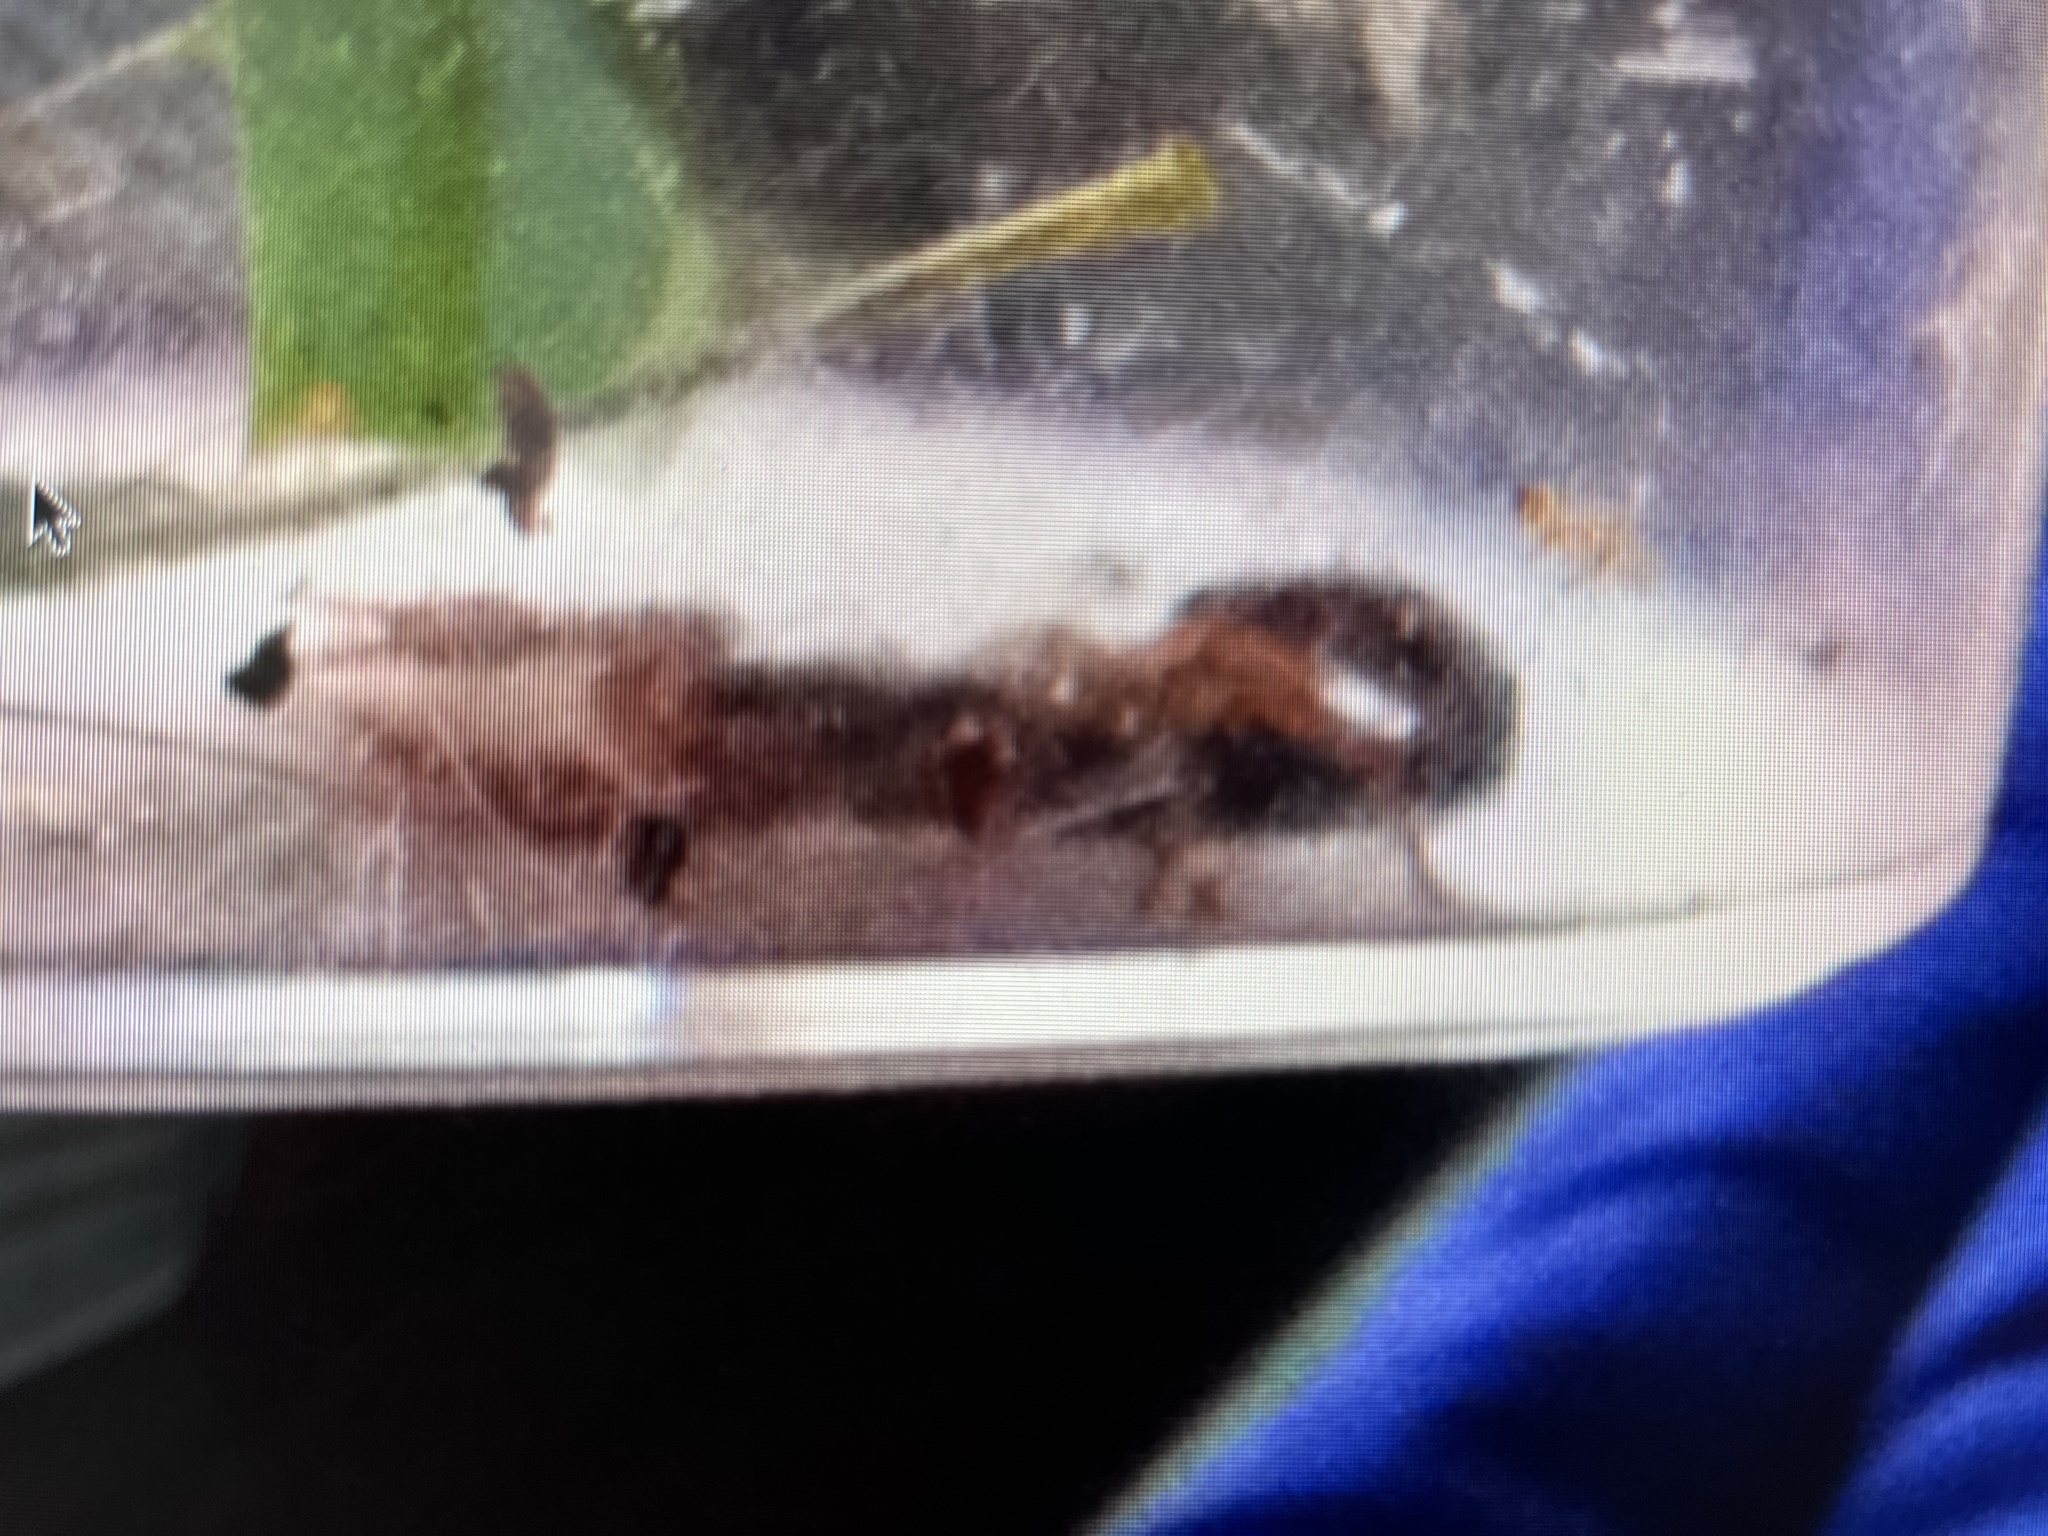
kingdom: Animalia
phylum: Arthropoda
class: Arachnida
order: Scorpiones
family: Vaejovidae
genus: Vaejovis
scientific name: Vaejovis carolinianus
